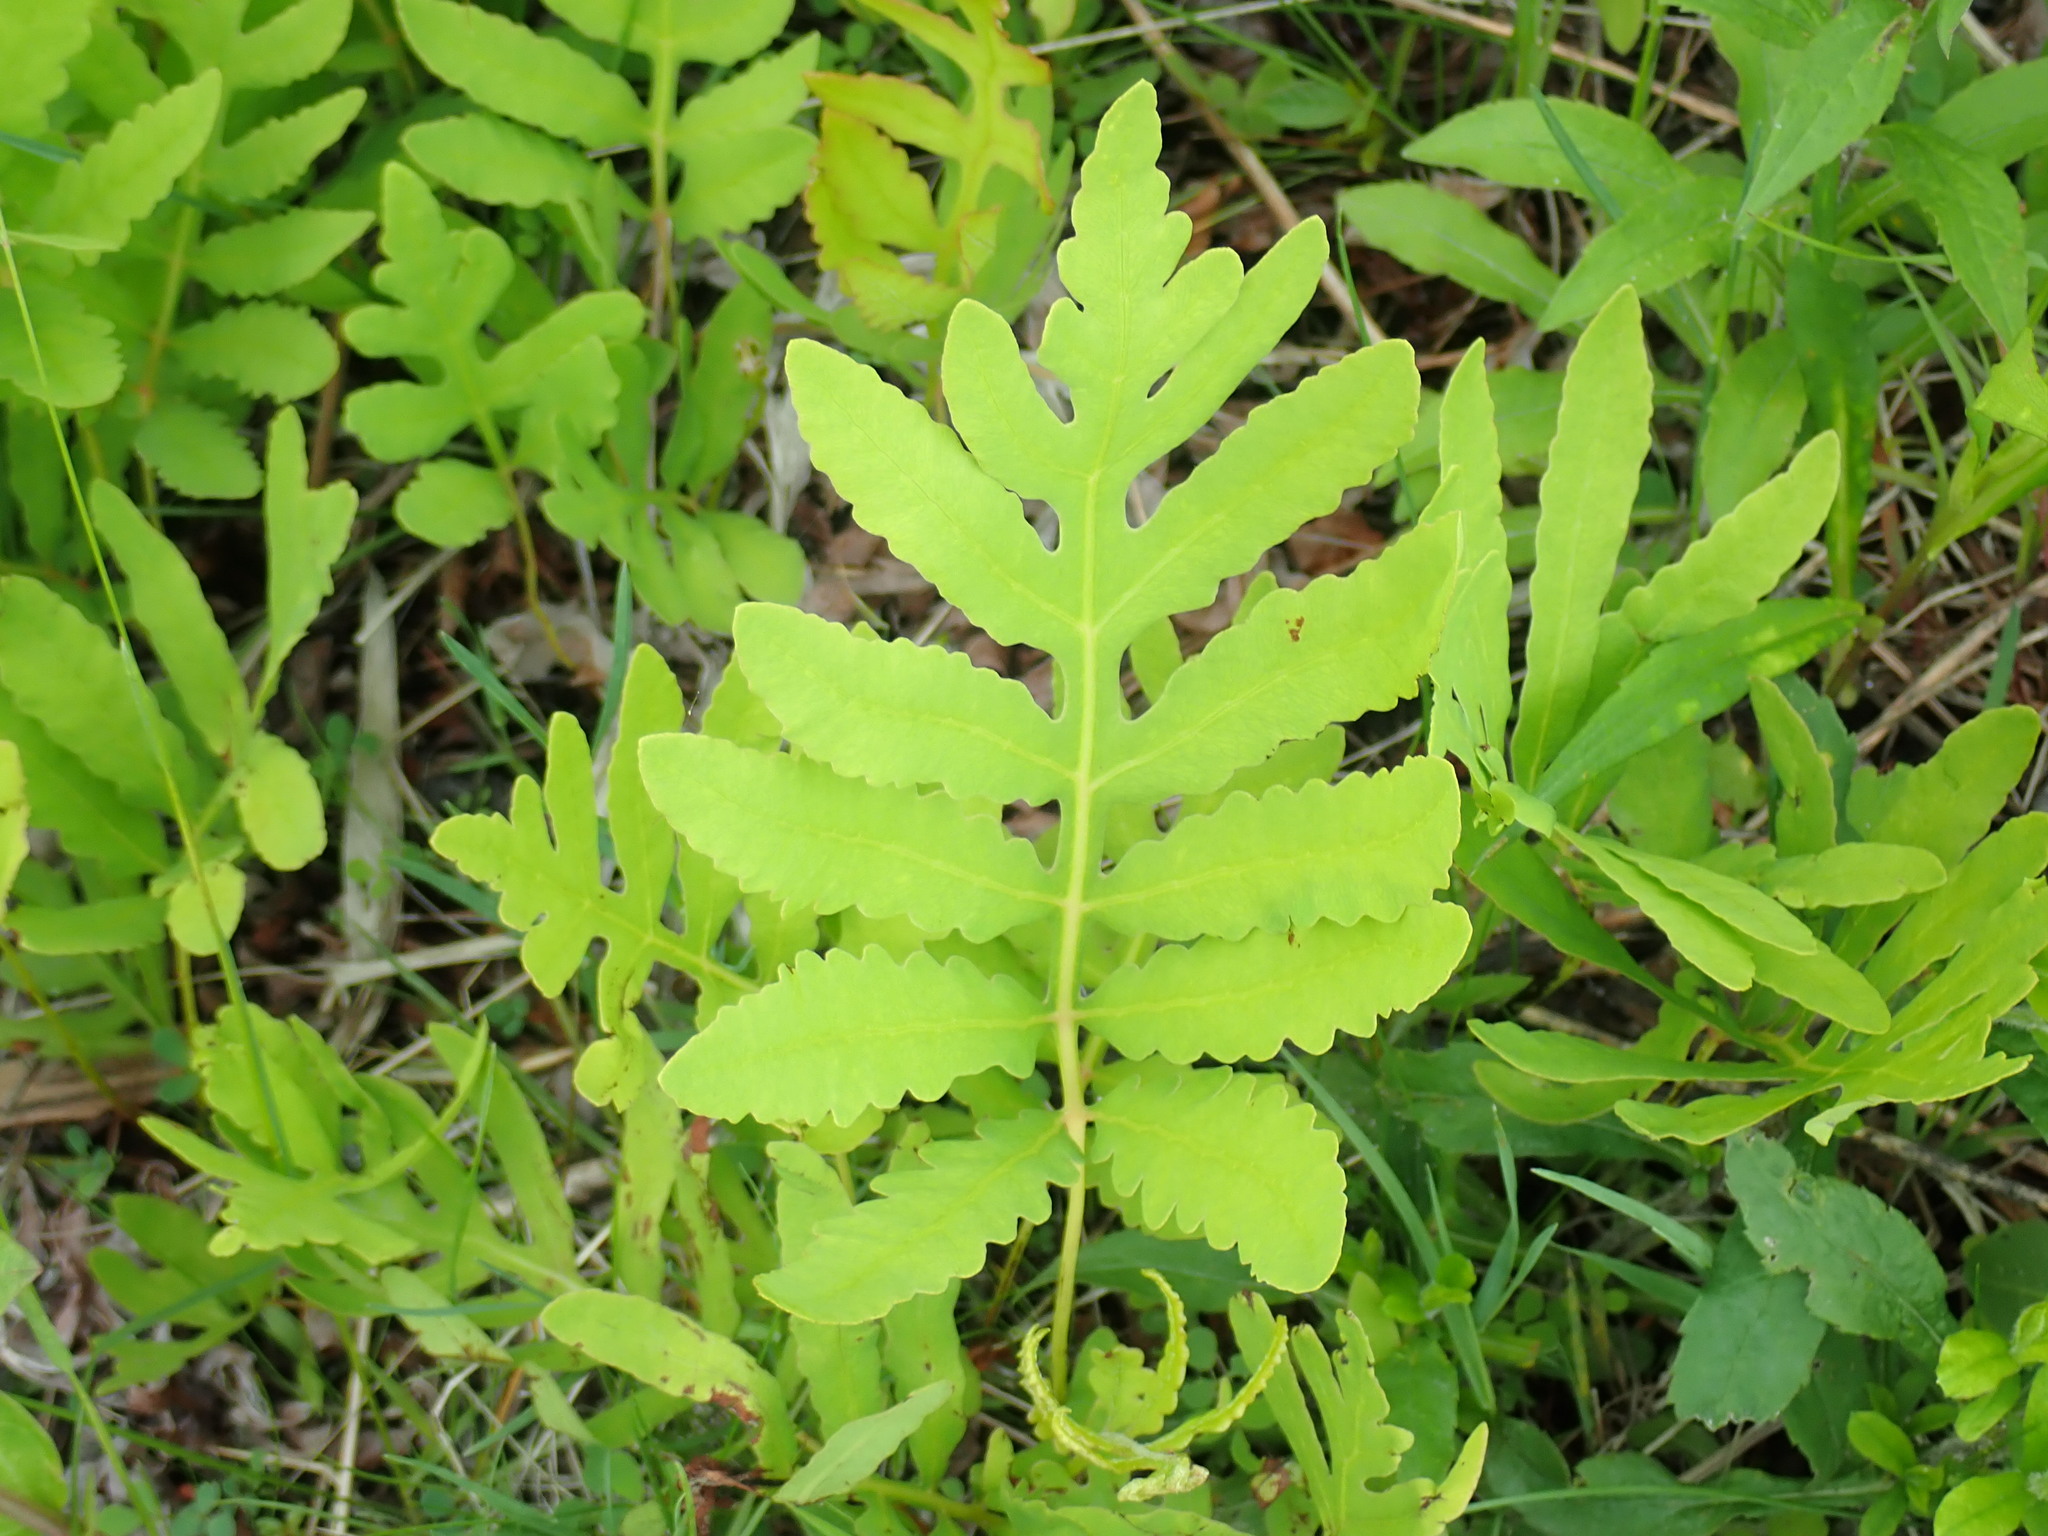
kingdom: Plantae
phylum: Tracheophyta
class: Polypodiopsida
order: Polypodiales
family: Onocleaceae
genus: Onoclea
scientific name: Onoclea sensibilis
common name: Sensitive fern
